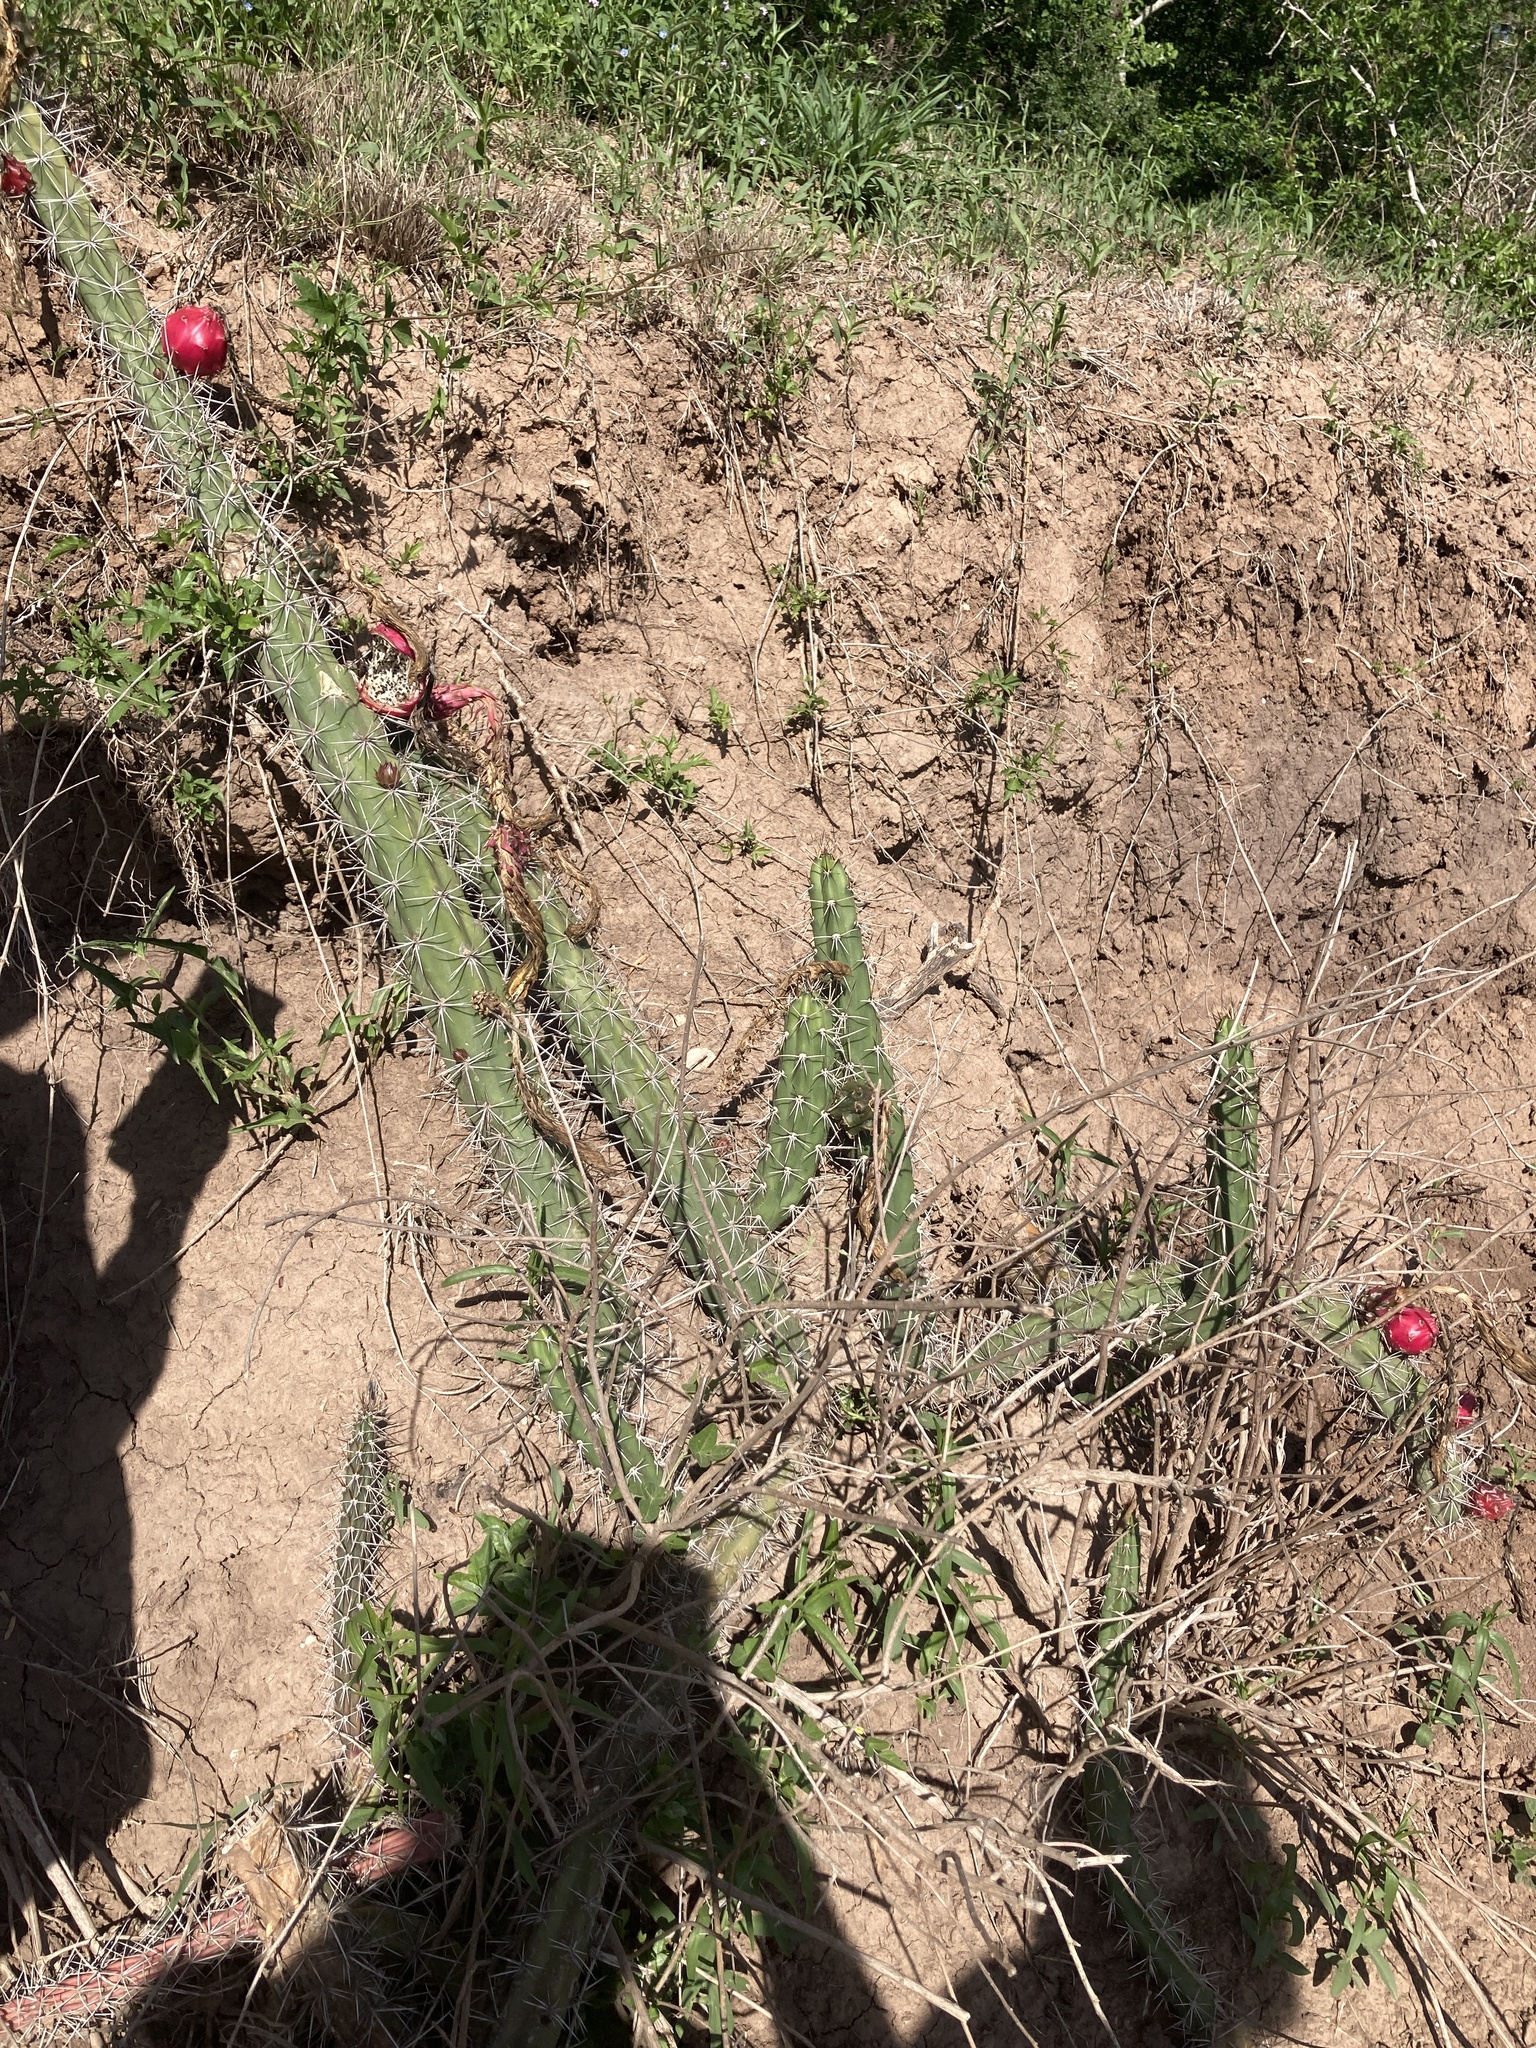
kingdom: Plantae
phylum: Tracheophyta
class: Magnoliopsida
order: Caryophyllales
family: Cactaceae
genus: Harrisia
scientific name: Harrisia pomanensis
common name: Midnight-lady
